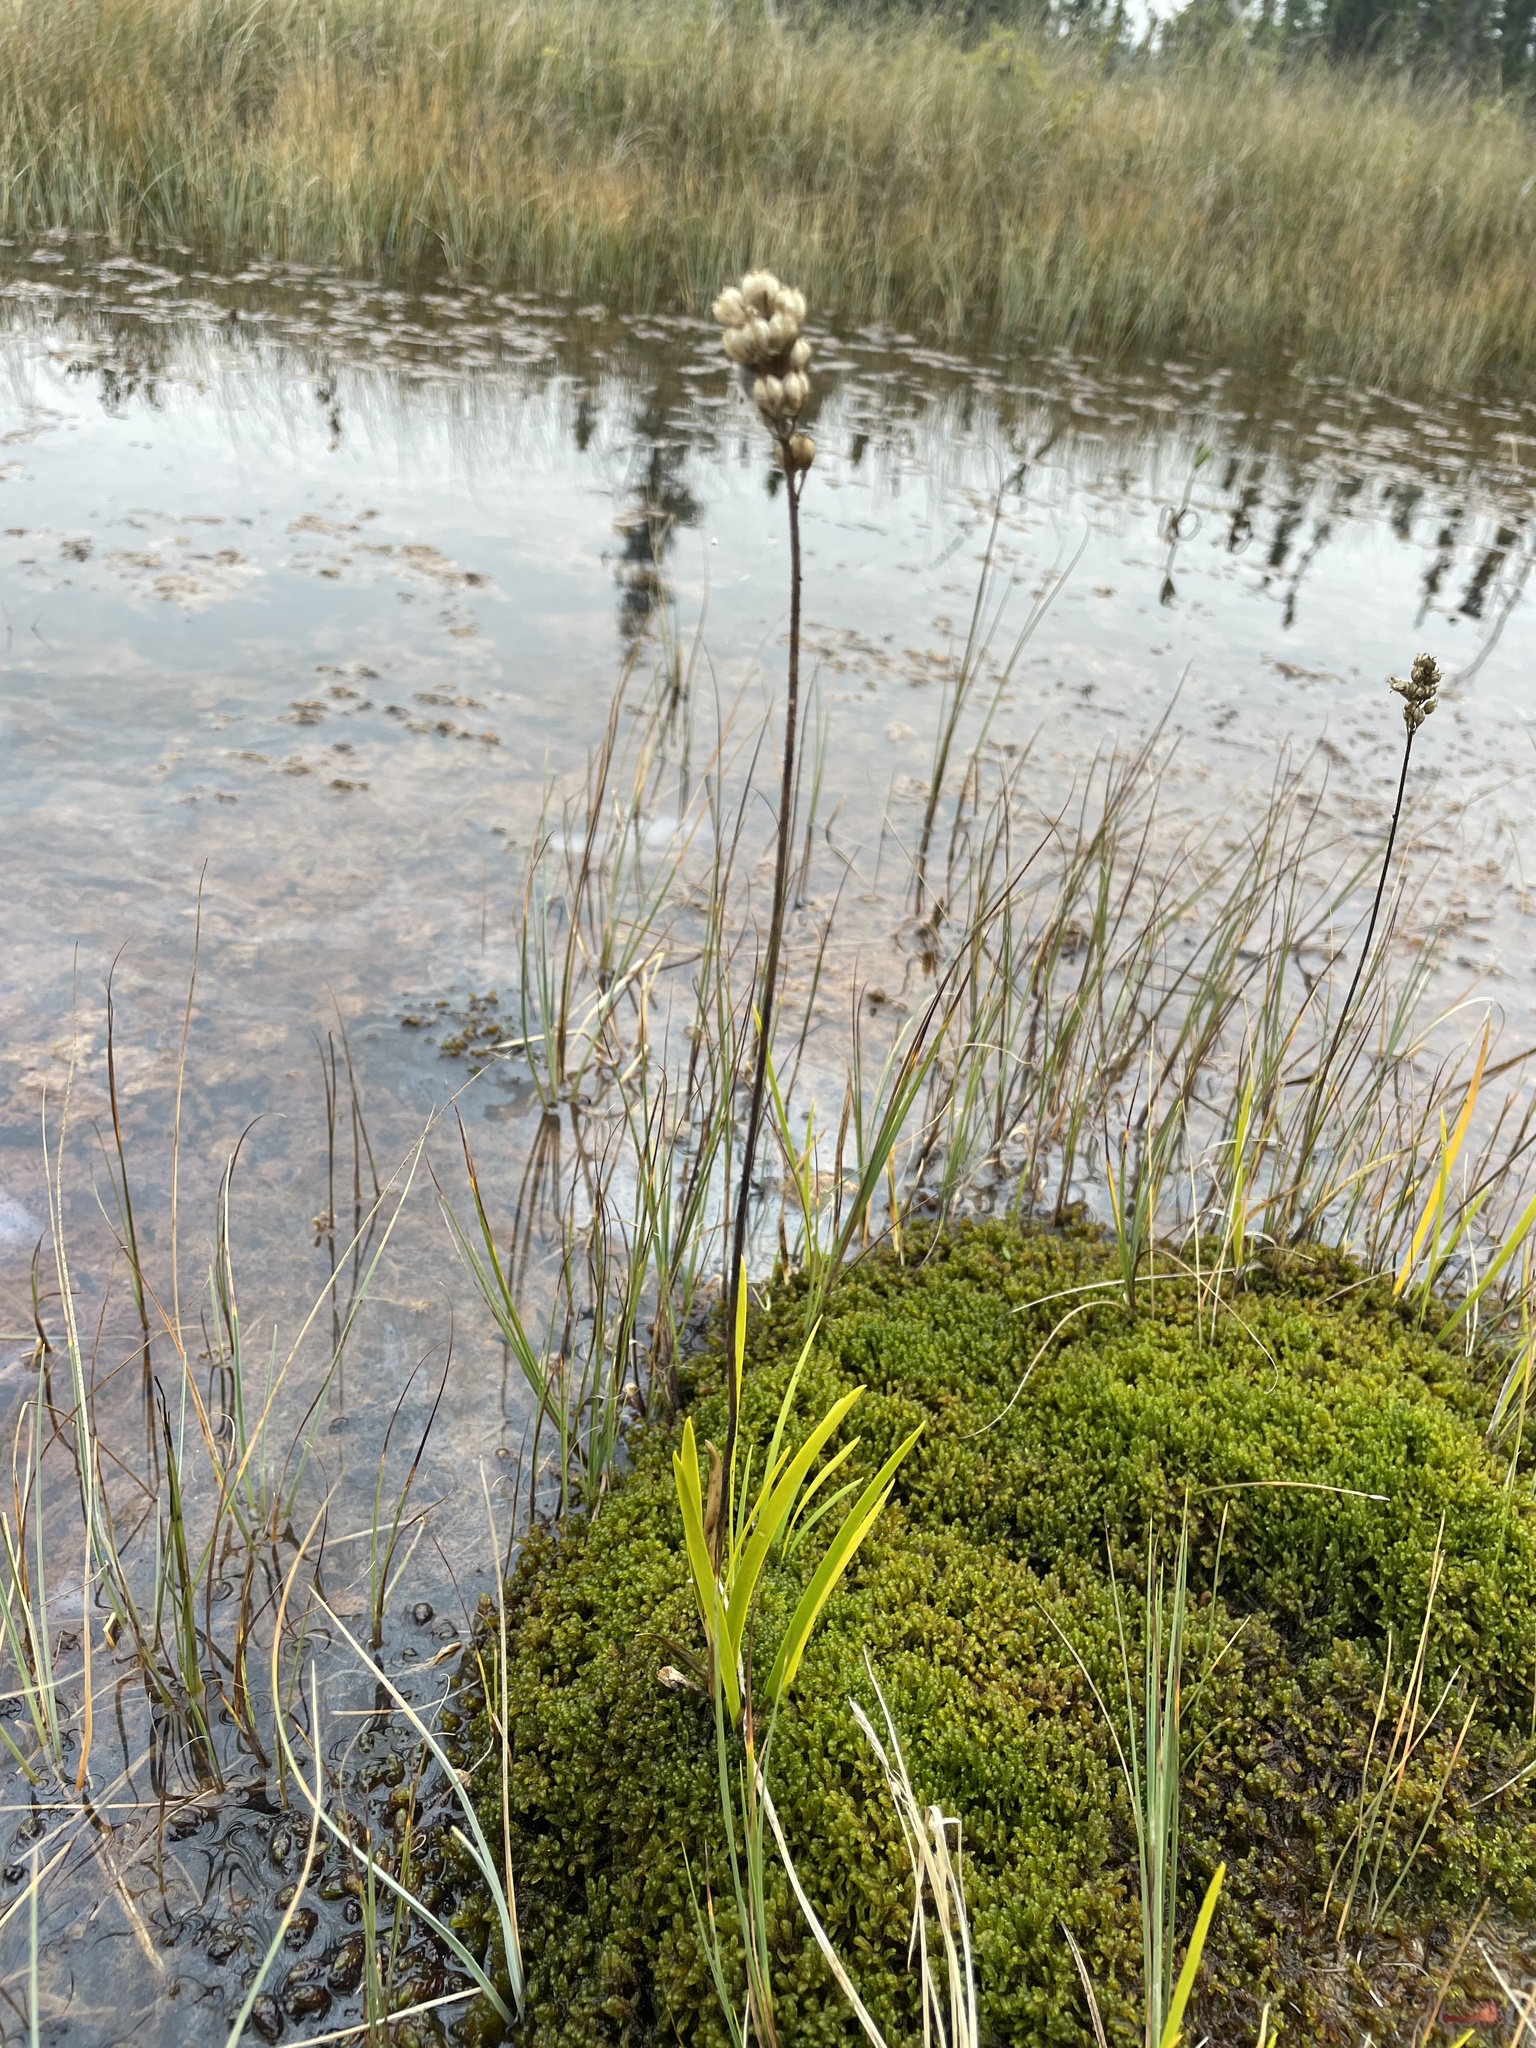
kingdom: Plantae
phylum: Tracheophyta
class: Liliopsida
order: Alismatales
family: Tofieldiaceae
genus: Triantha
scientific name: Triantha glutinosa
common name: Glutinous tofieldia
